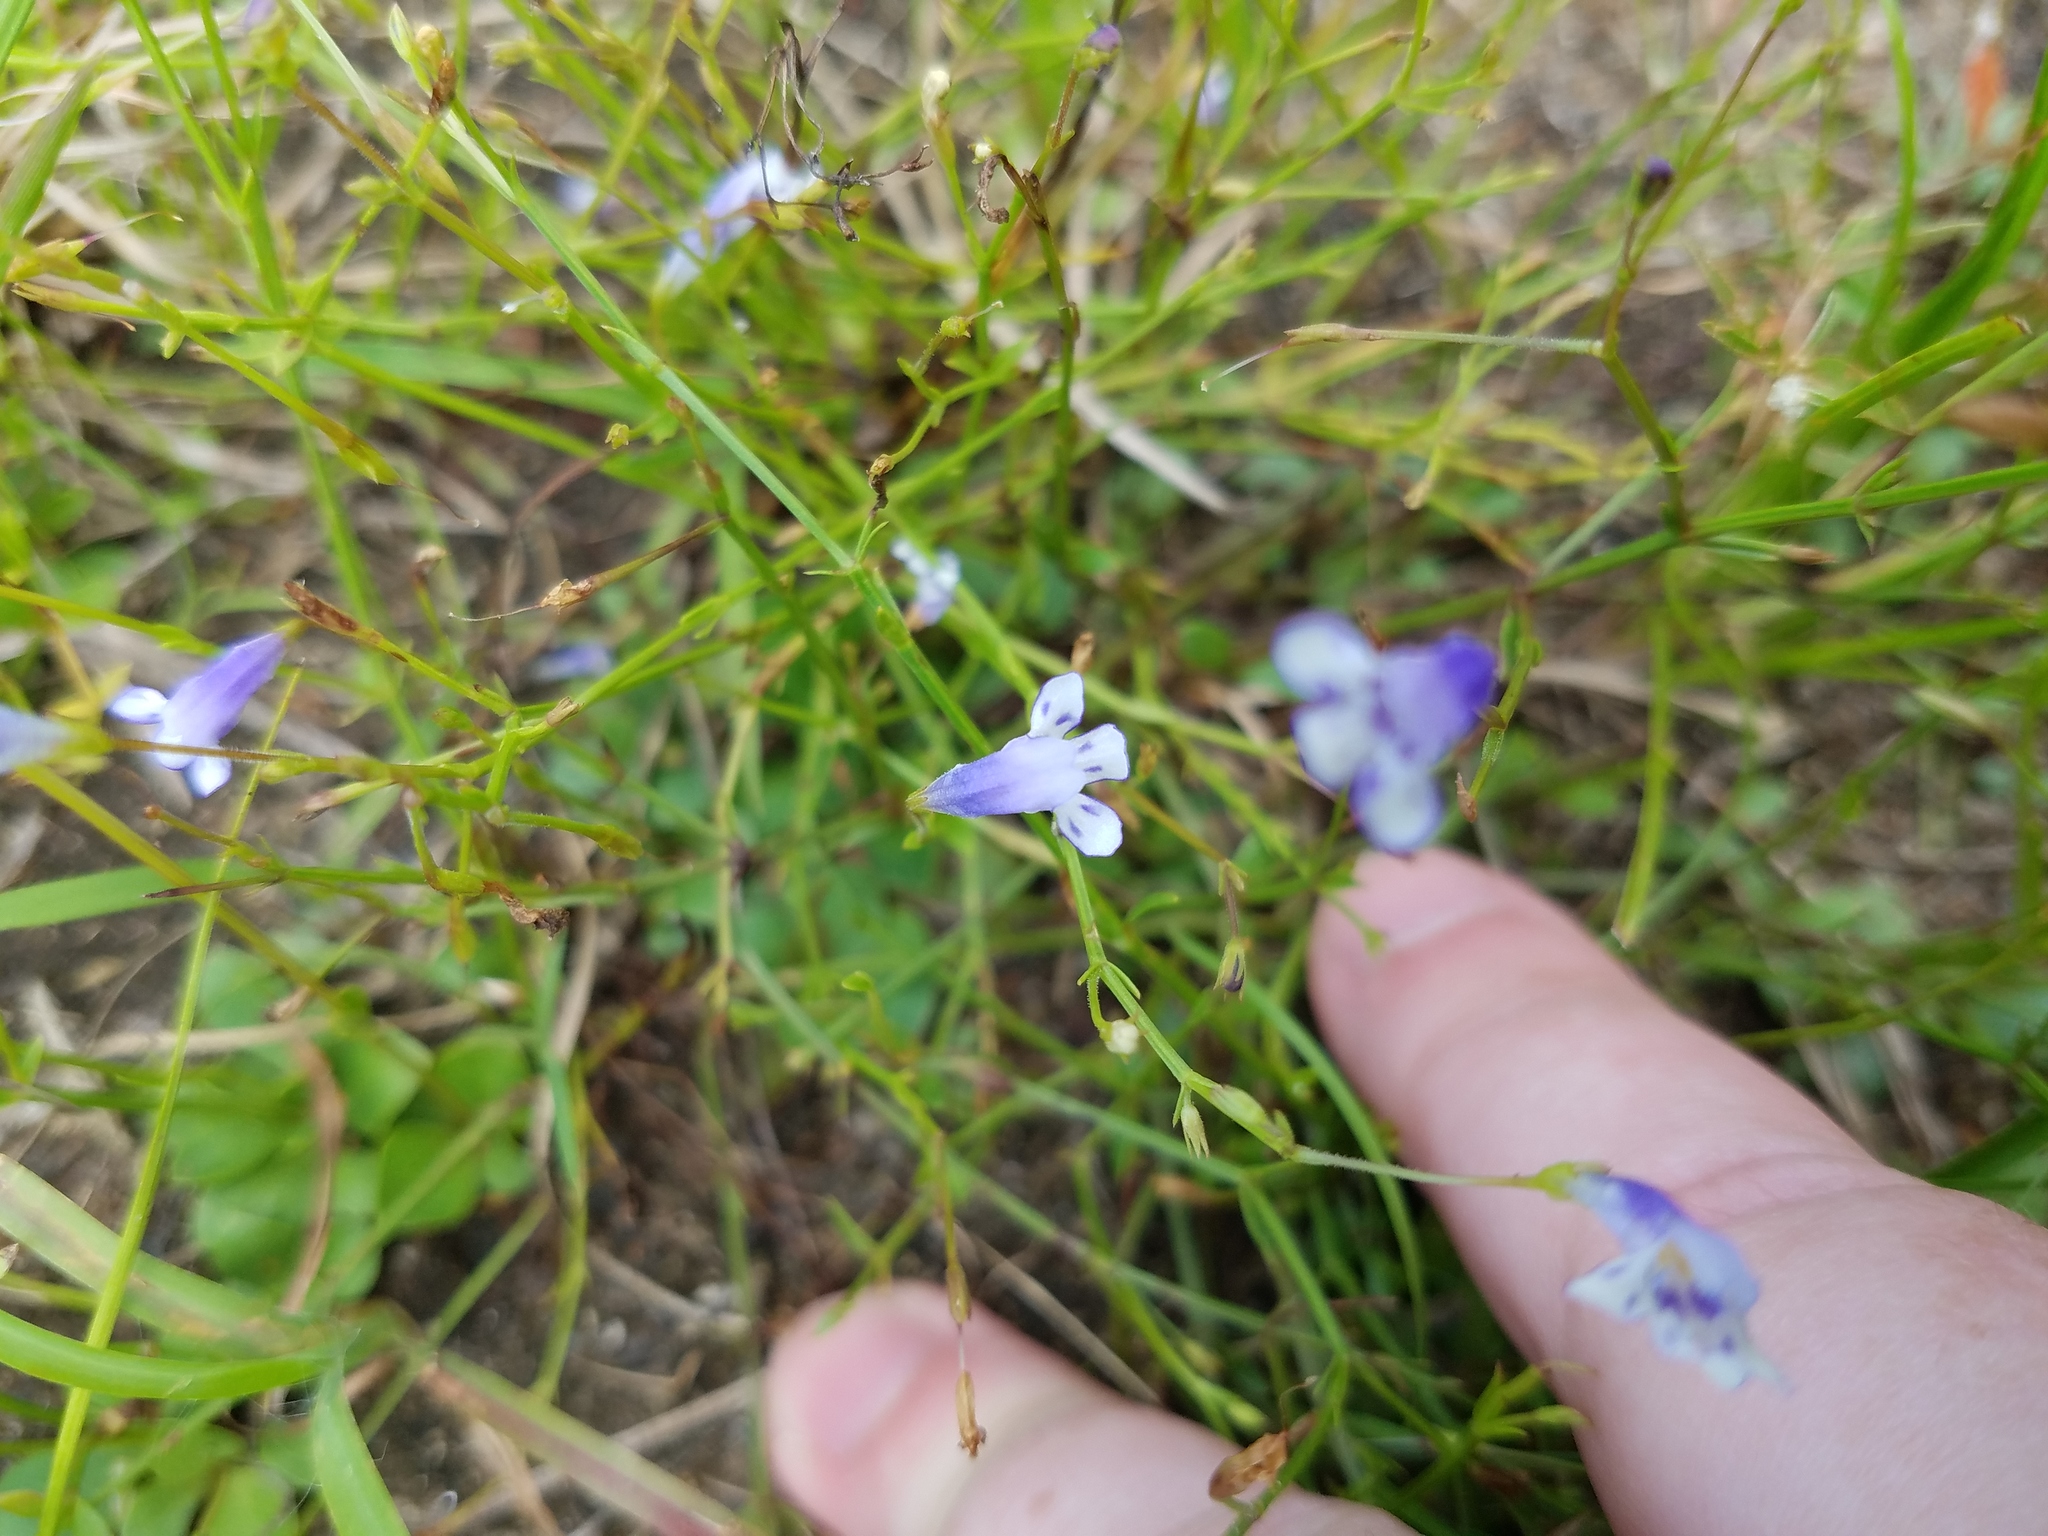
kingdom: Plantae
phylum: Tracheophyta
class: Magnoliopsida
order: Lamiales
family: Linderniaceae
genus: Lindernia
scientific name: Lindernia monticola
